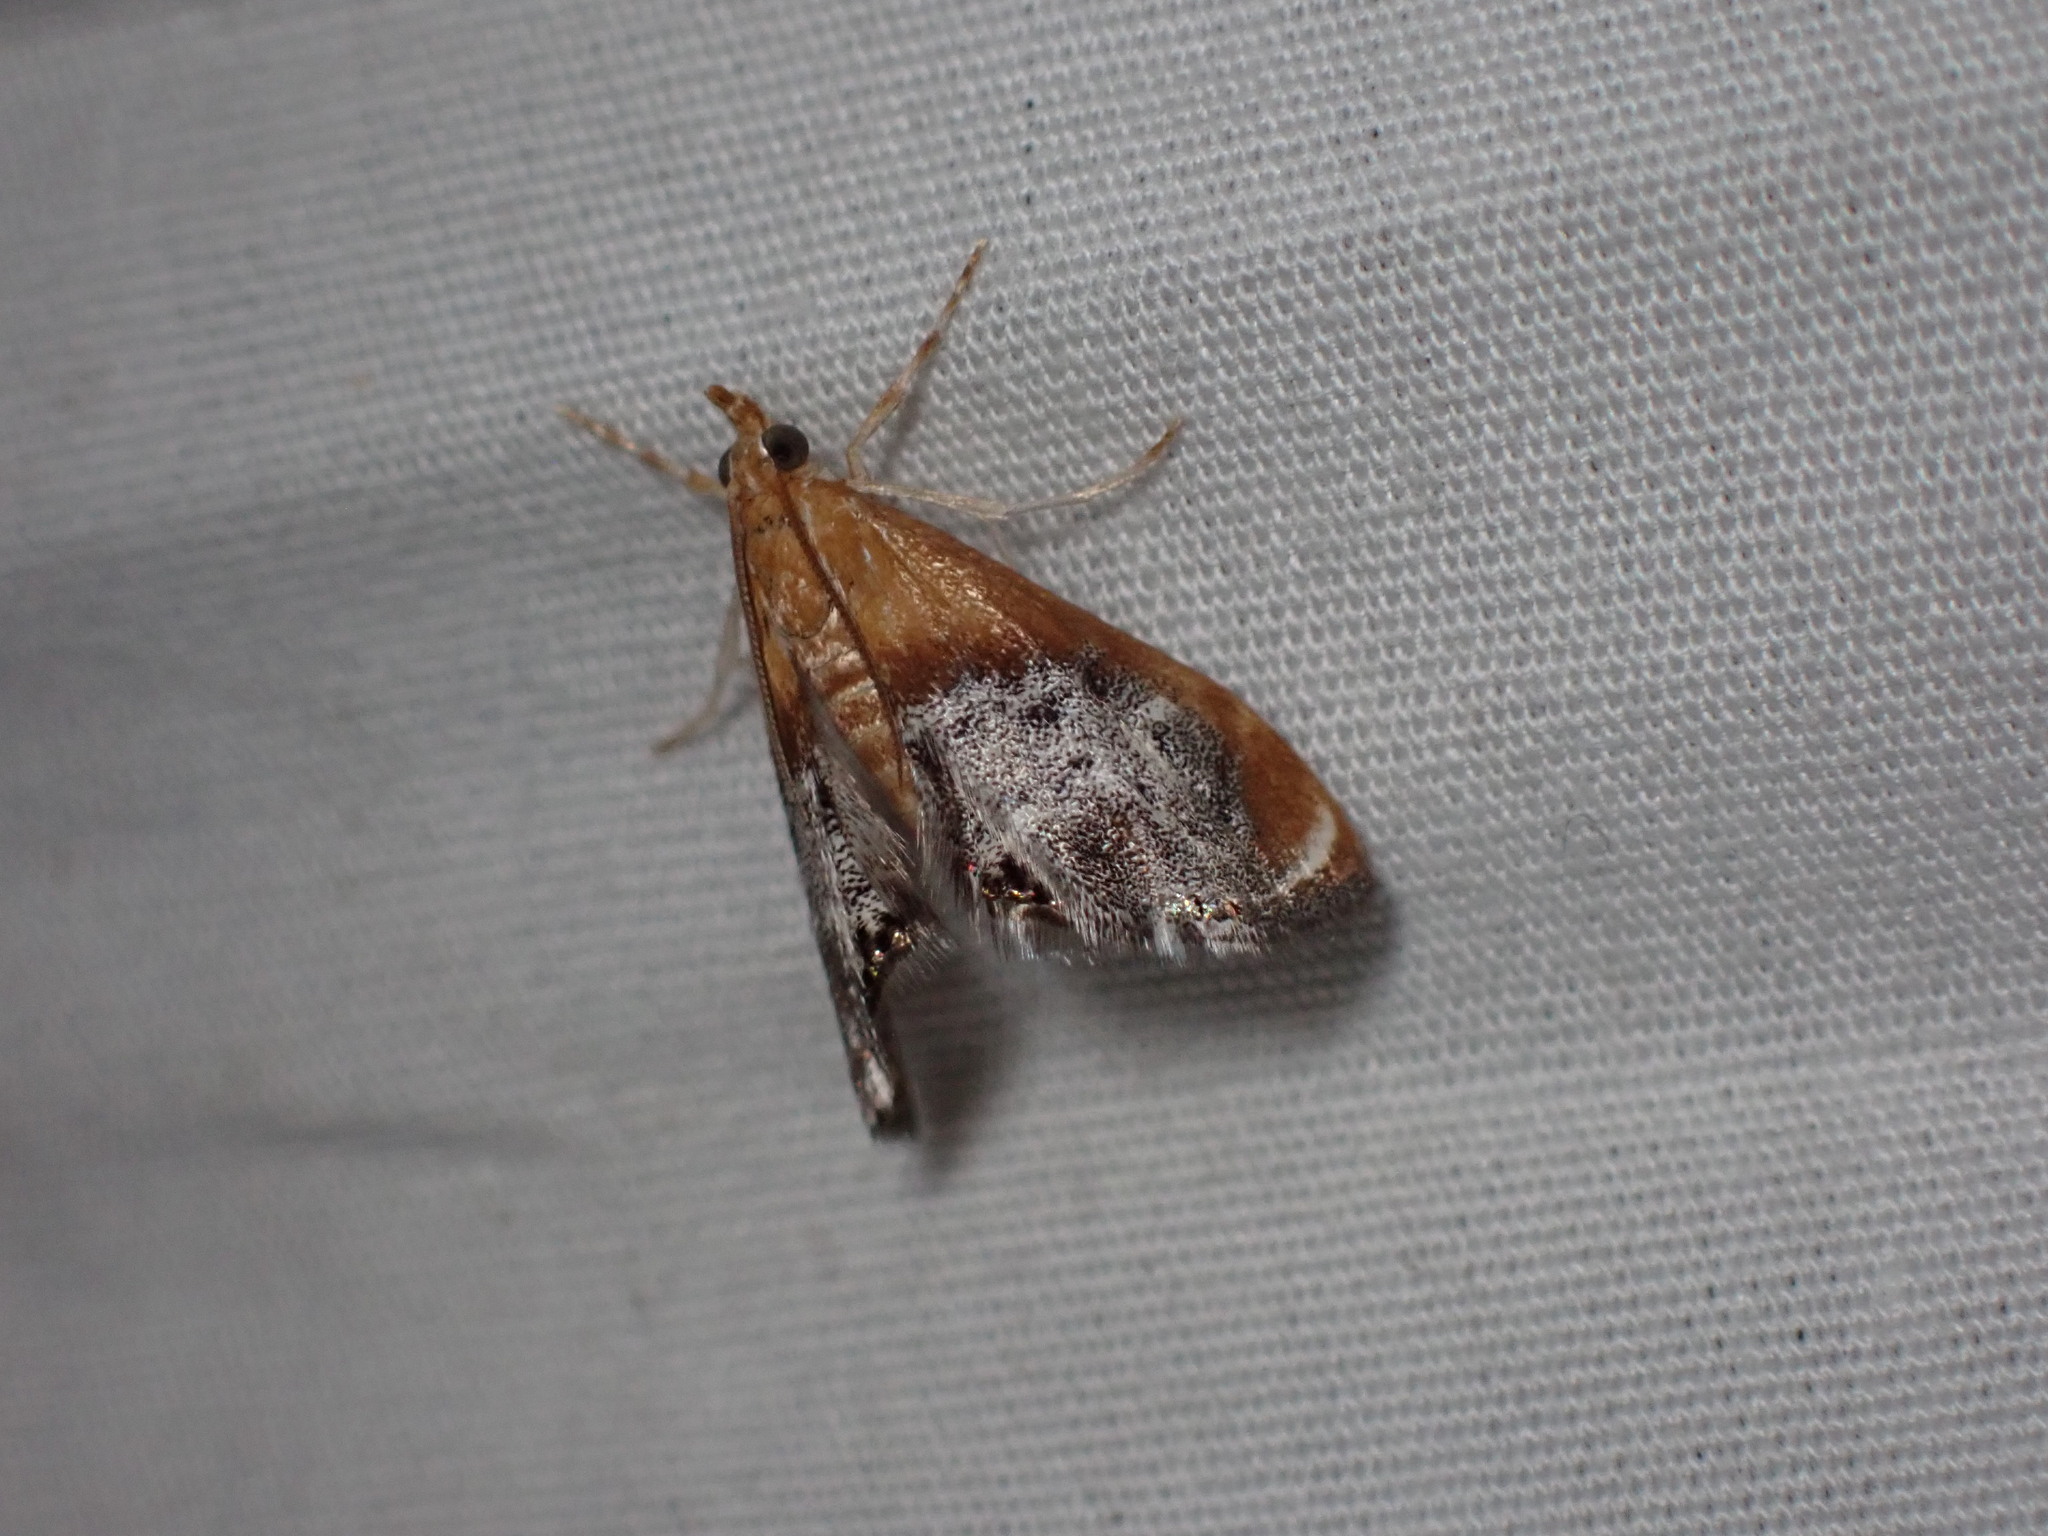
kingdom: Animalia
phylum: Arthropoda
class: Insecta
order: Lepidoptera
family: Crambidae
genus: Chalcoela
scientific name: Chalcoela iphitalis
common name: Sooty-winged chalcoela moth
